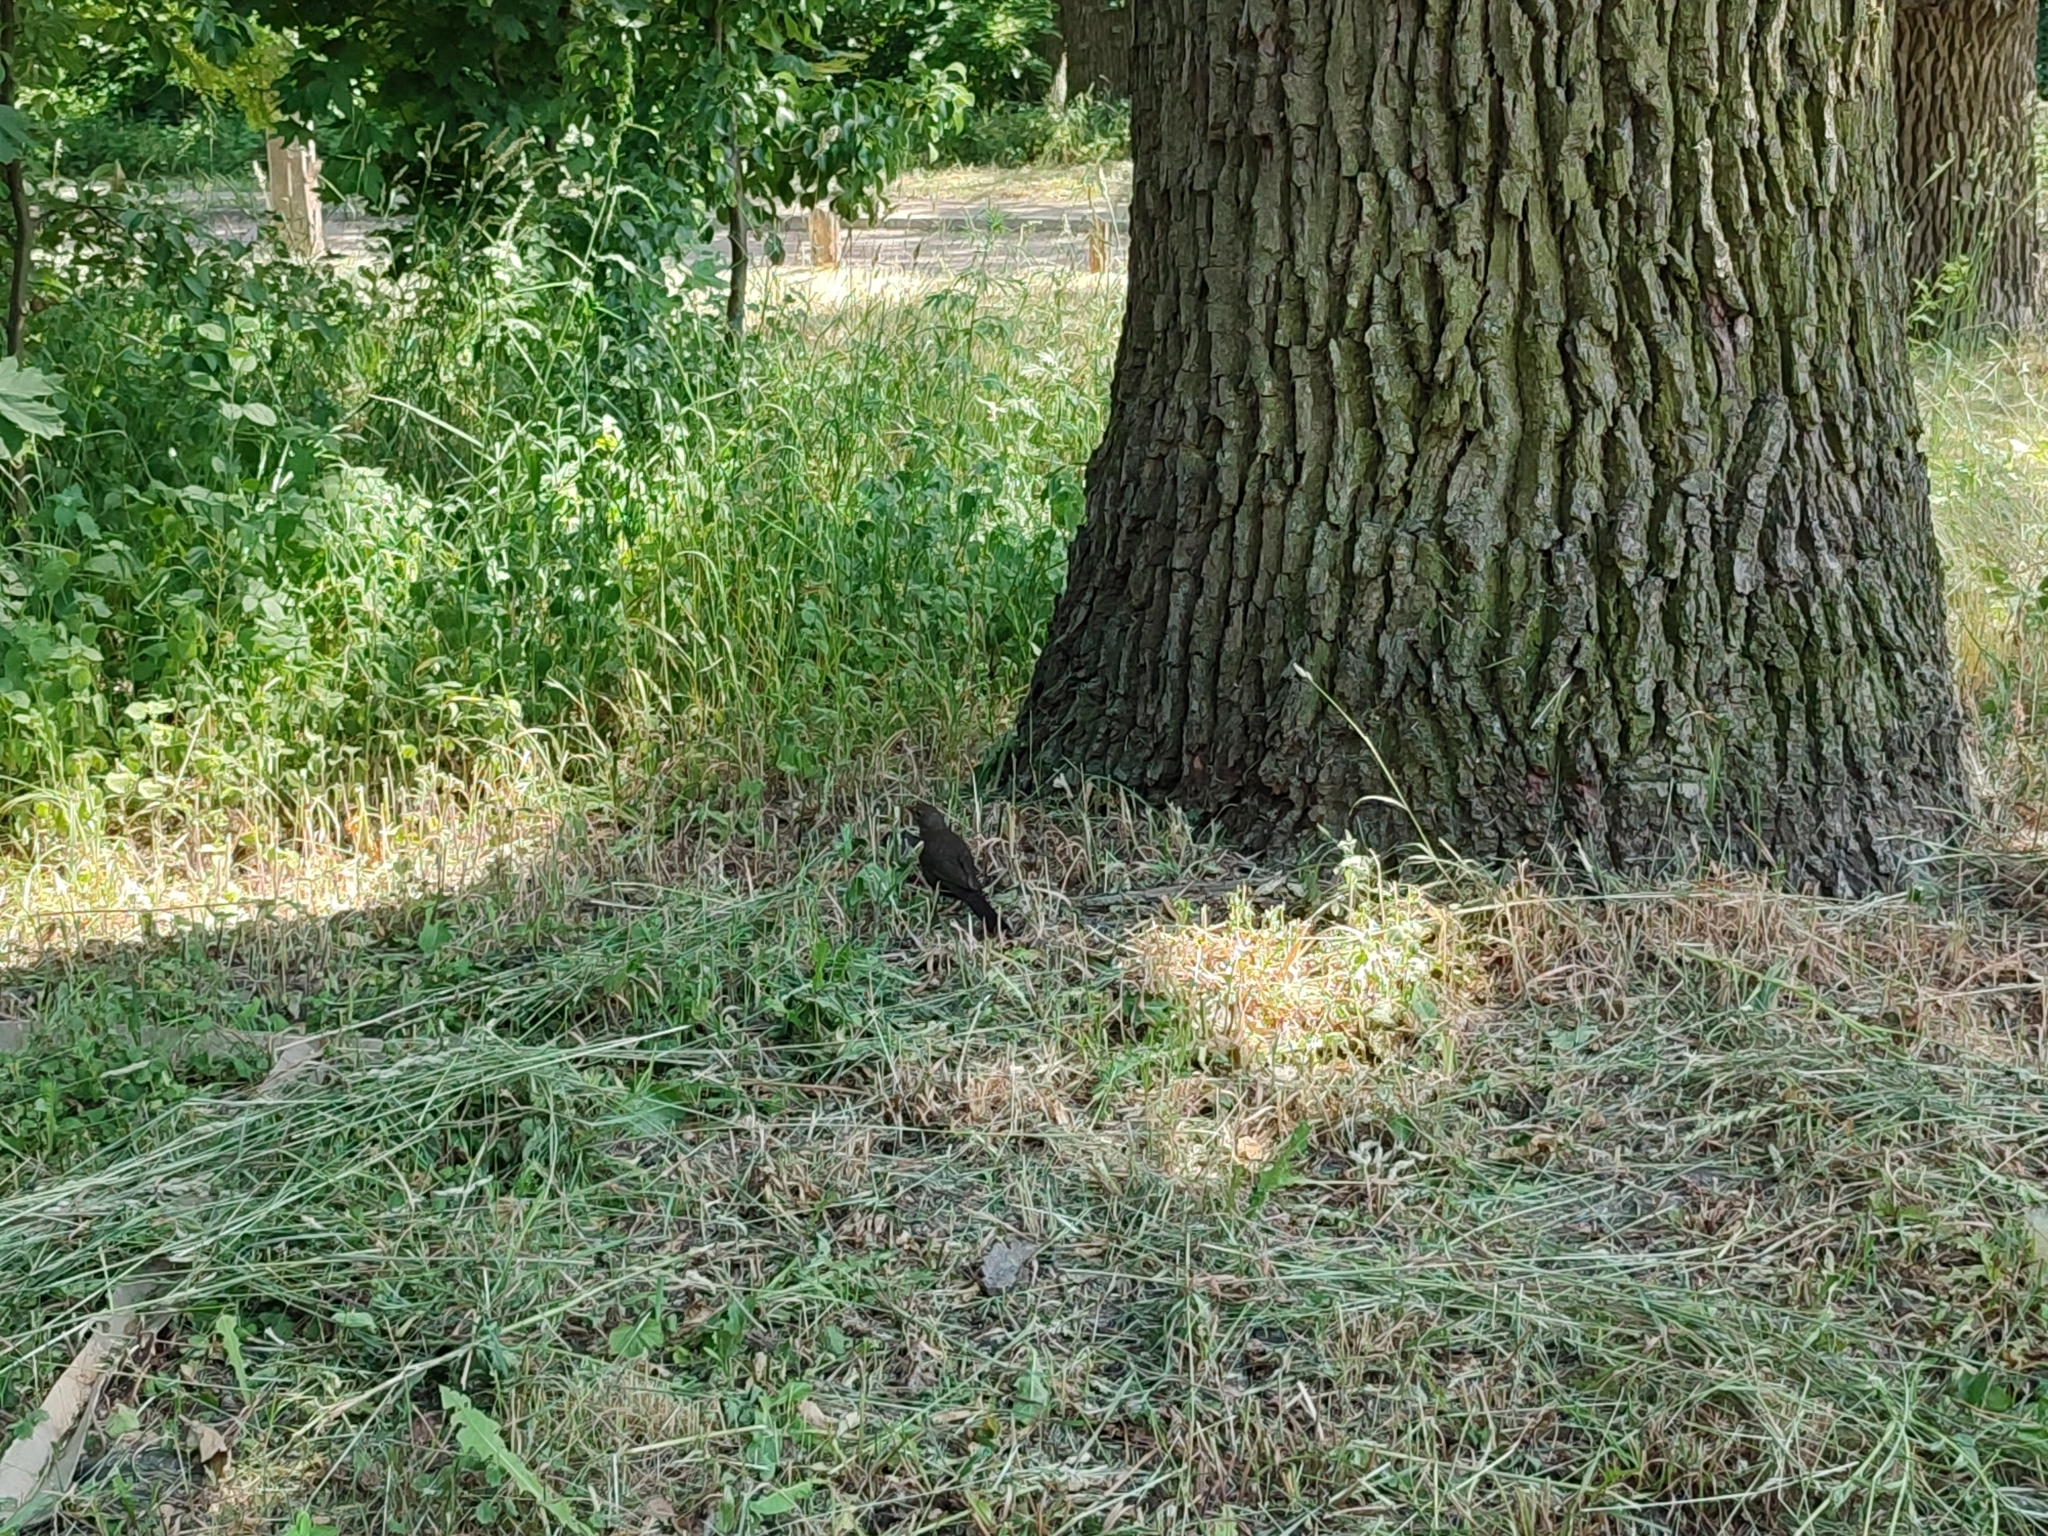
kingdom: Animalia
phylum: Chordata
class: Aves
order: Passeriformes
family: Turdidae
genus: Turdus
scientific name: Turdus merula
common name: Common blackbird
